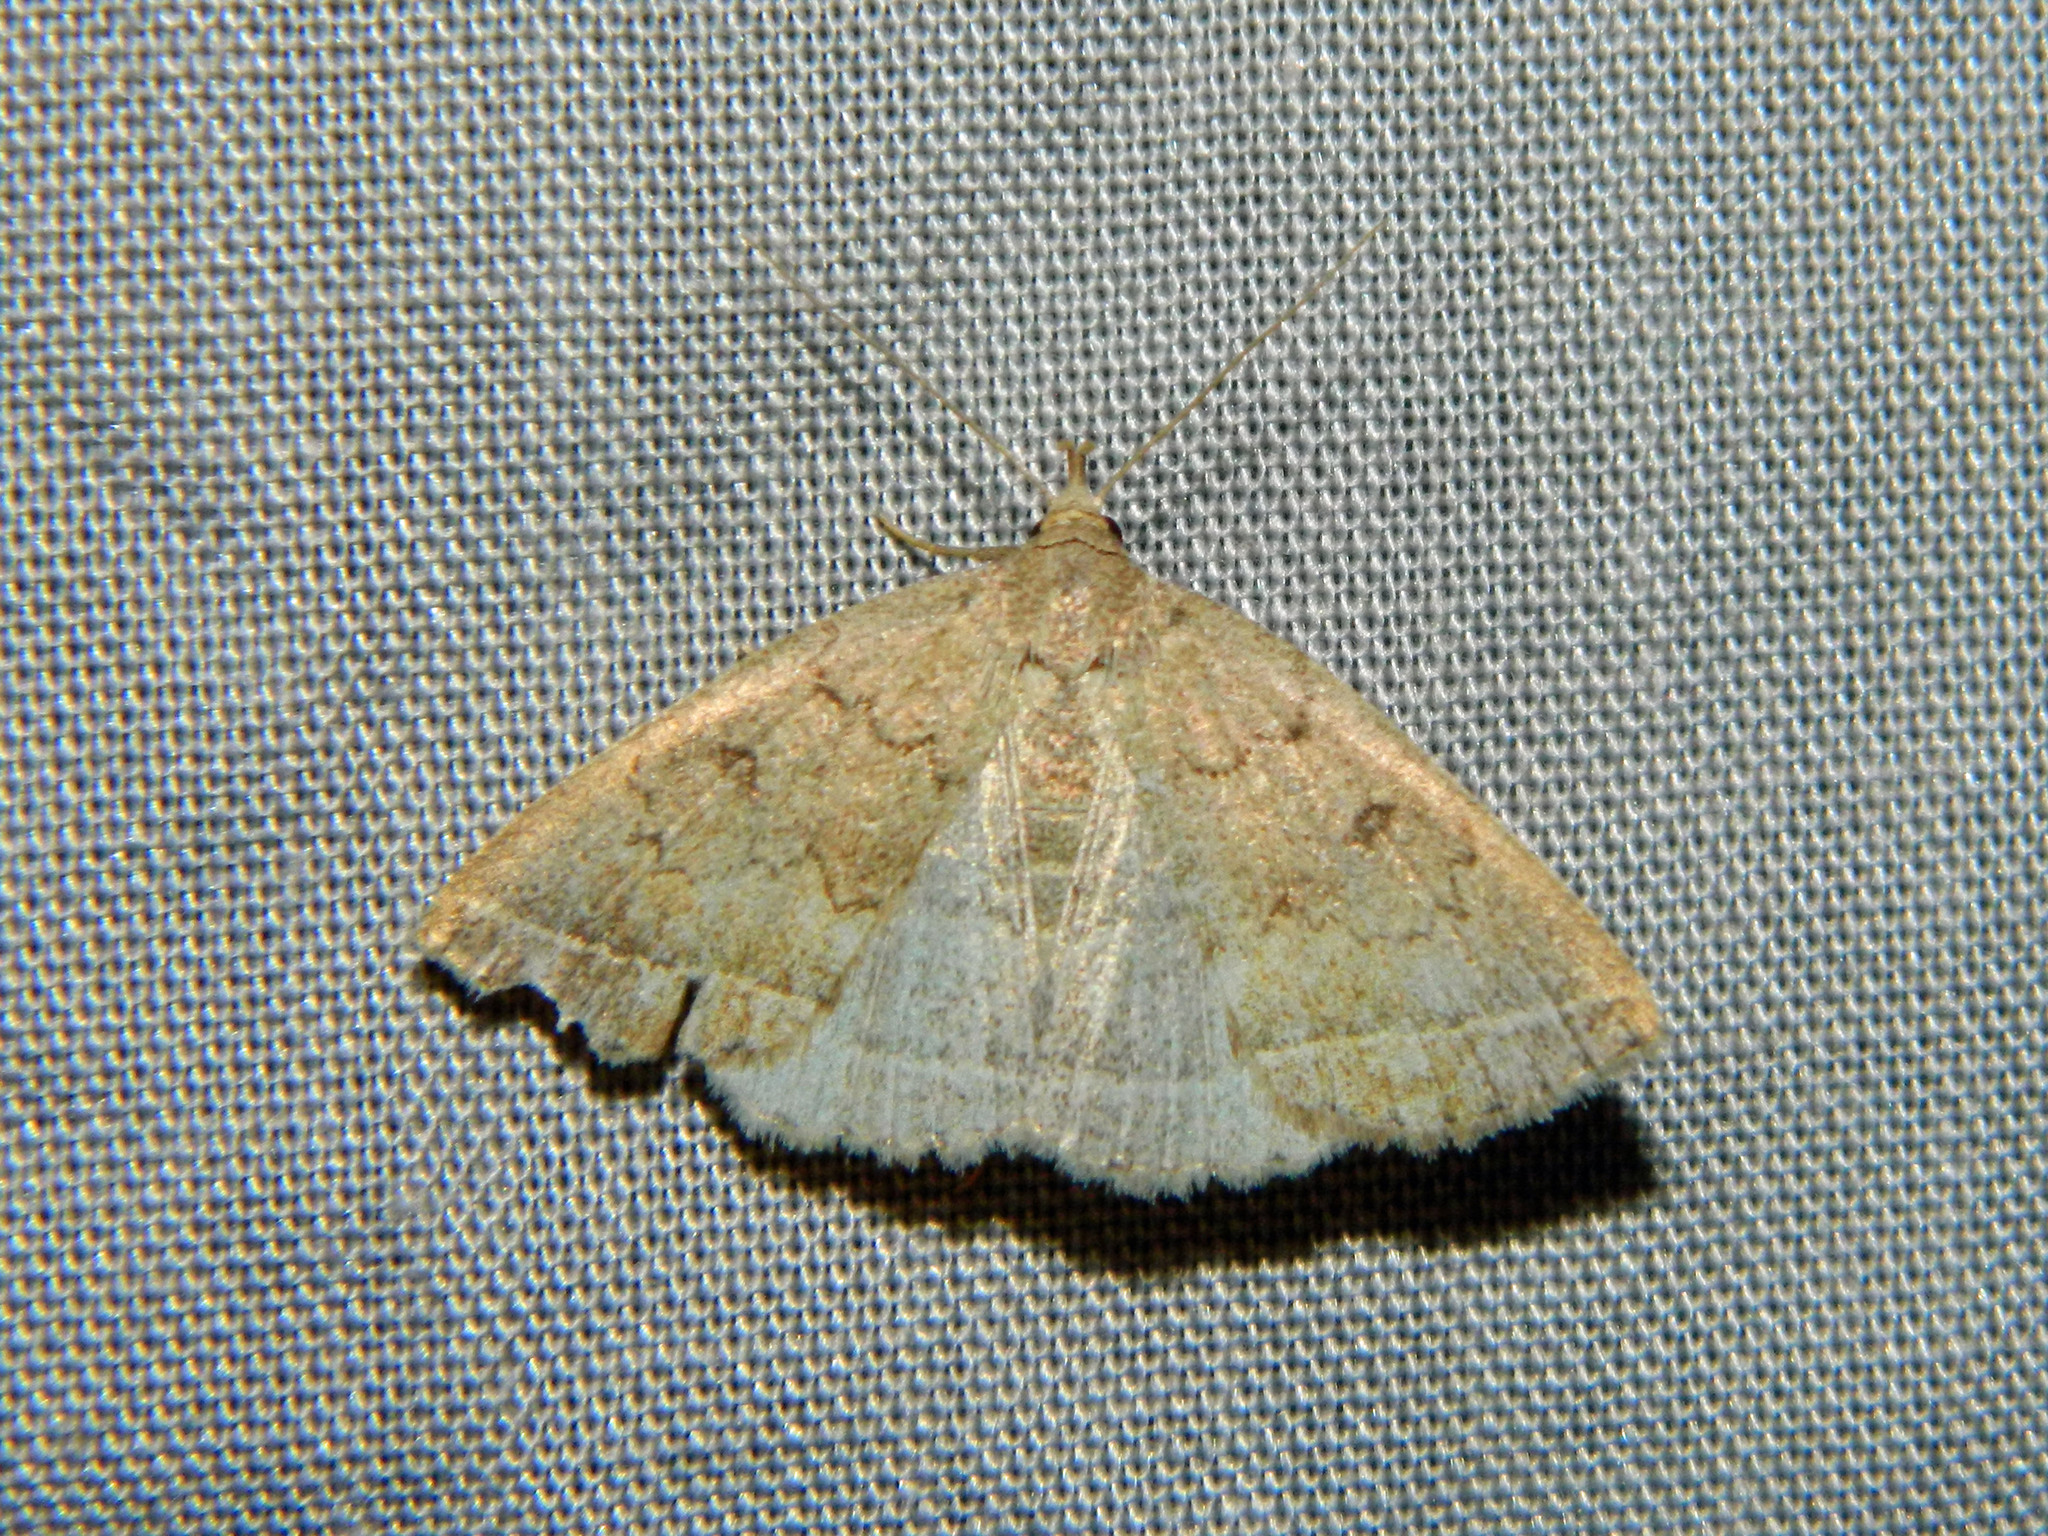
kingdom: Animalia
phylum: Arthropoda
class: Insecta
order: Lepidoptera
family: Erebidae
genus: Zanclognatha
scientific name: Zanclognatha jacchusalis
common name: Yellowish zanclognatha
